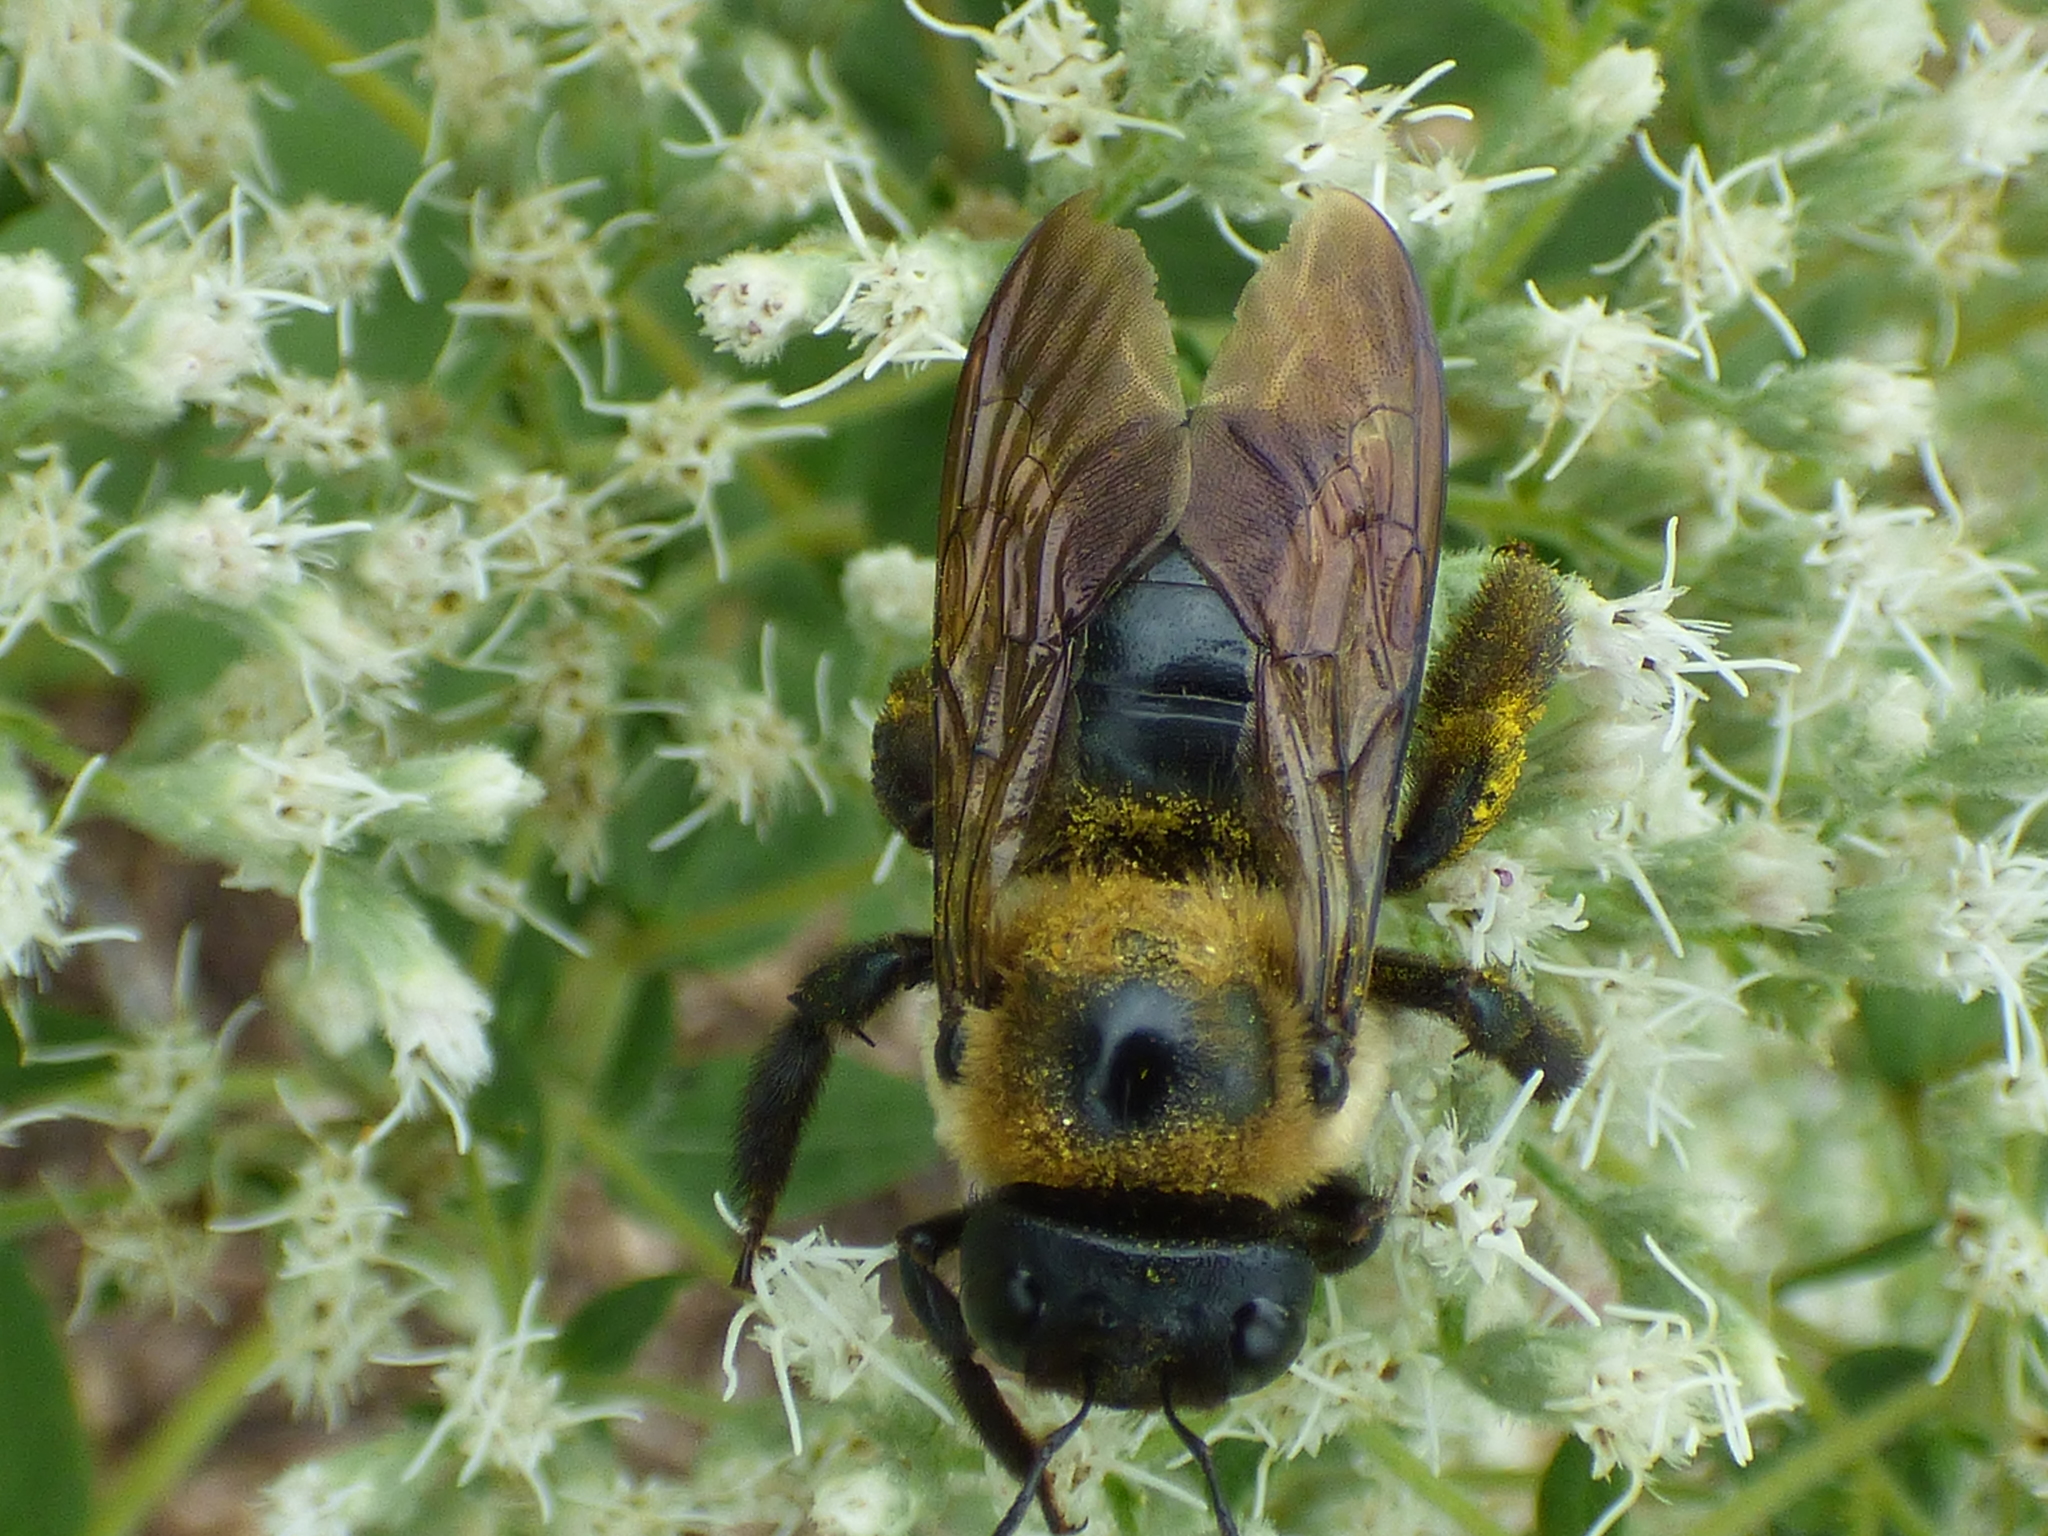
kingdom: Animalia
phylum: Arthropoda
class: Insecta
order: Hymenoptera
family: Apidae
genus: Xylocopa
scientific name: Xylocopa virginica
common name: Carpenter bee
